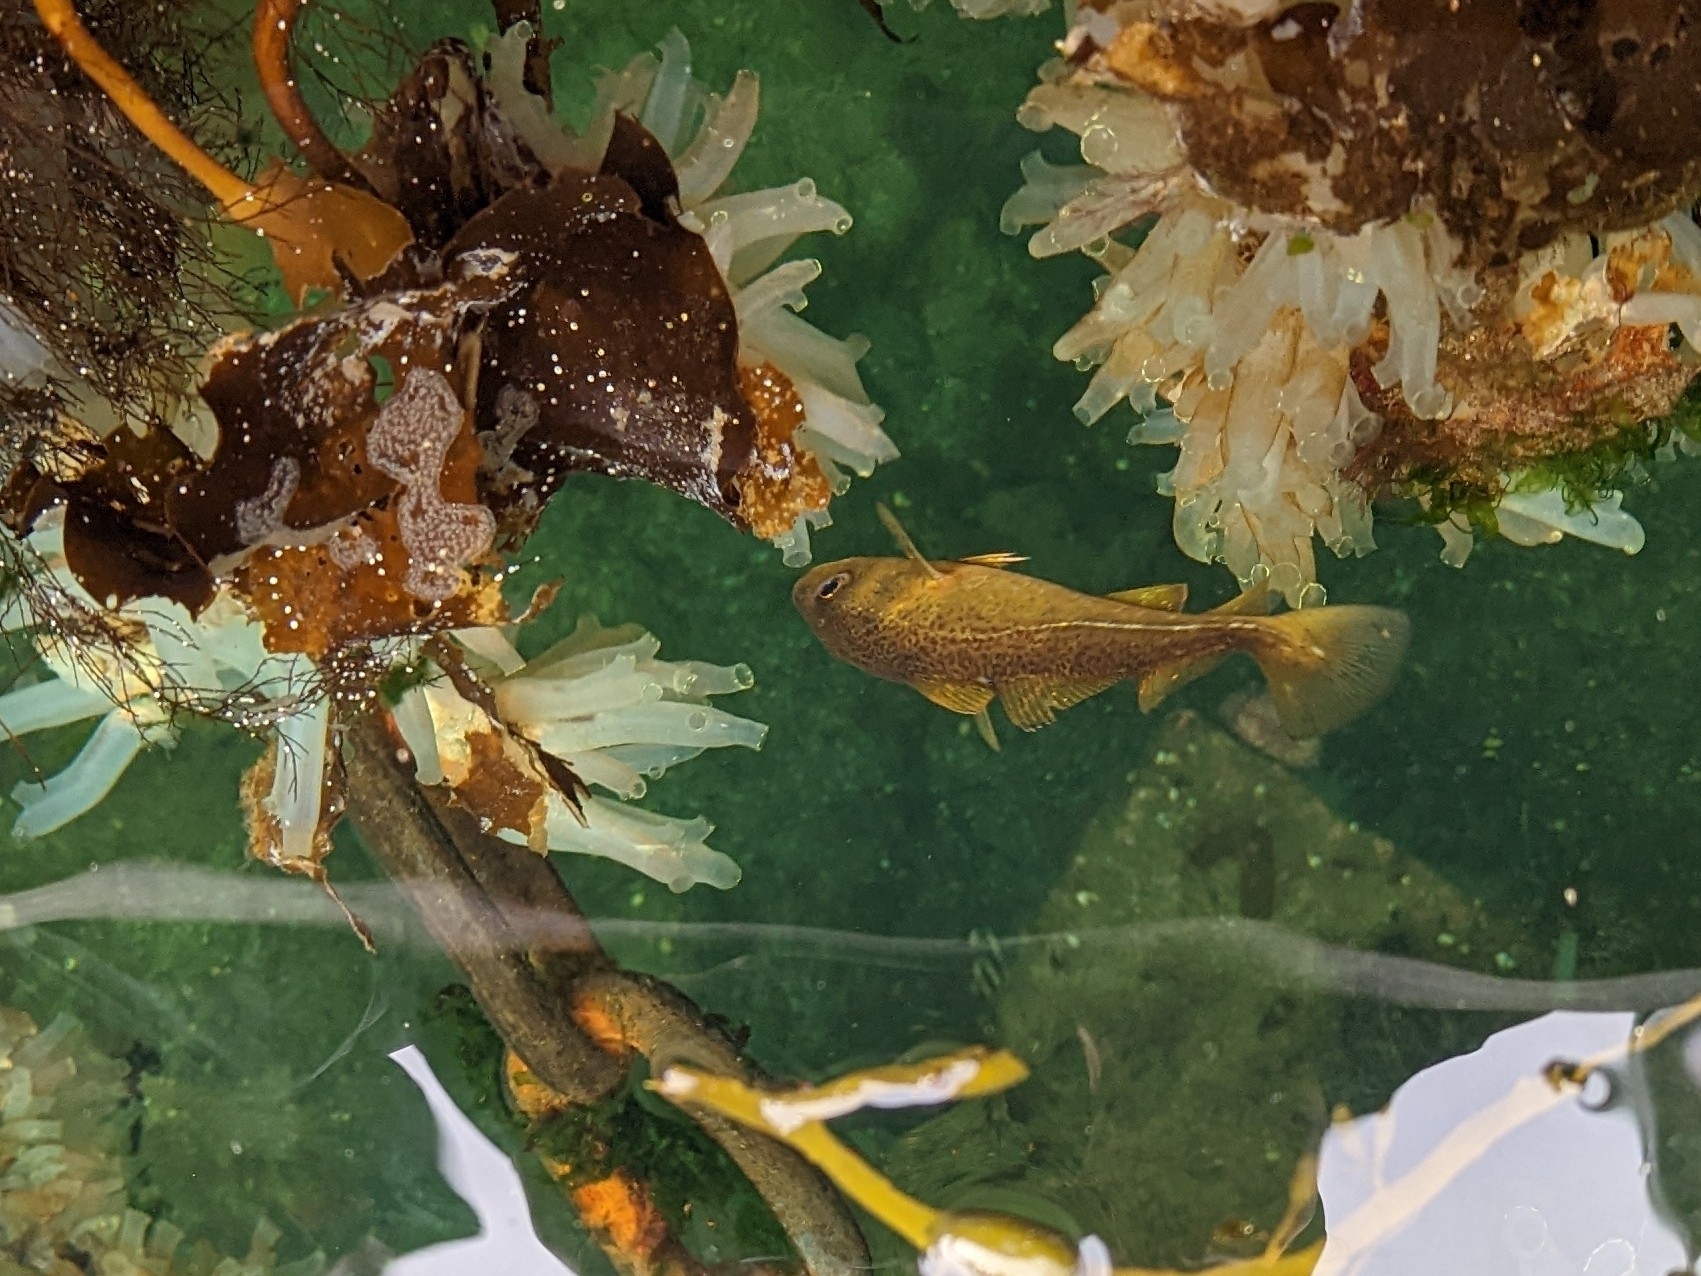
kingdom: Animalia
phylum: Chordata
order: Gadiformes
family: Gadidae
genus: Gadus
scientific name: Gadus morhua
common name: Atlantic cod
